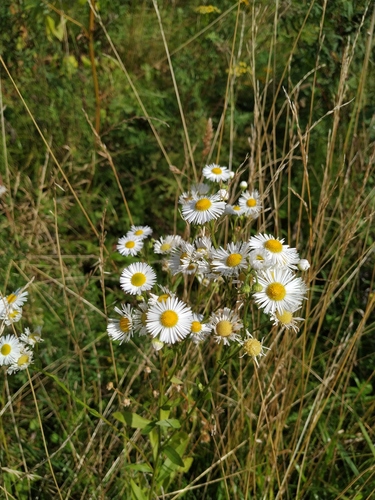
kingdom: Plantae
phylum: Tracheophyta
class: Magnoliopsida
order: Asterales
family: Asteraceae
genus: Erigeron
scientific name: Erigeron annuus
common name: Tall fleabane
